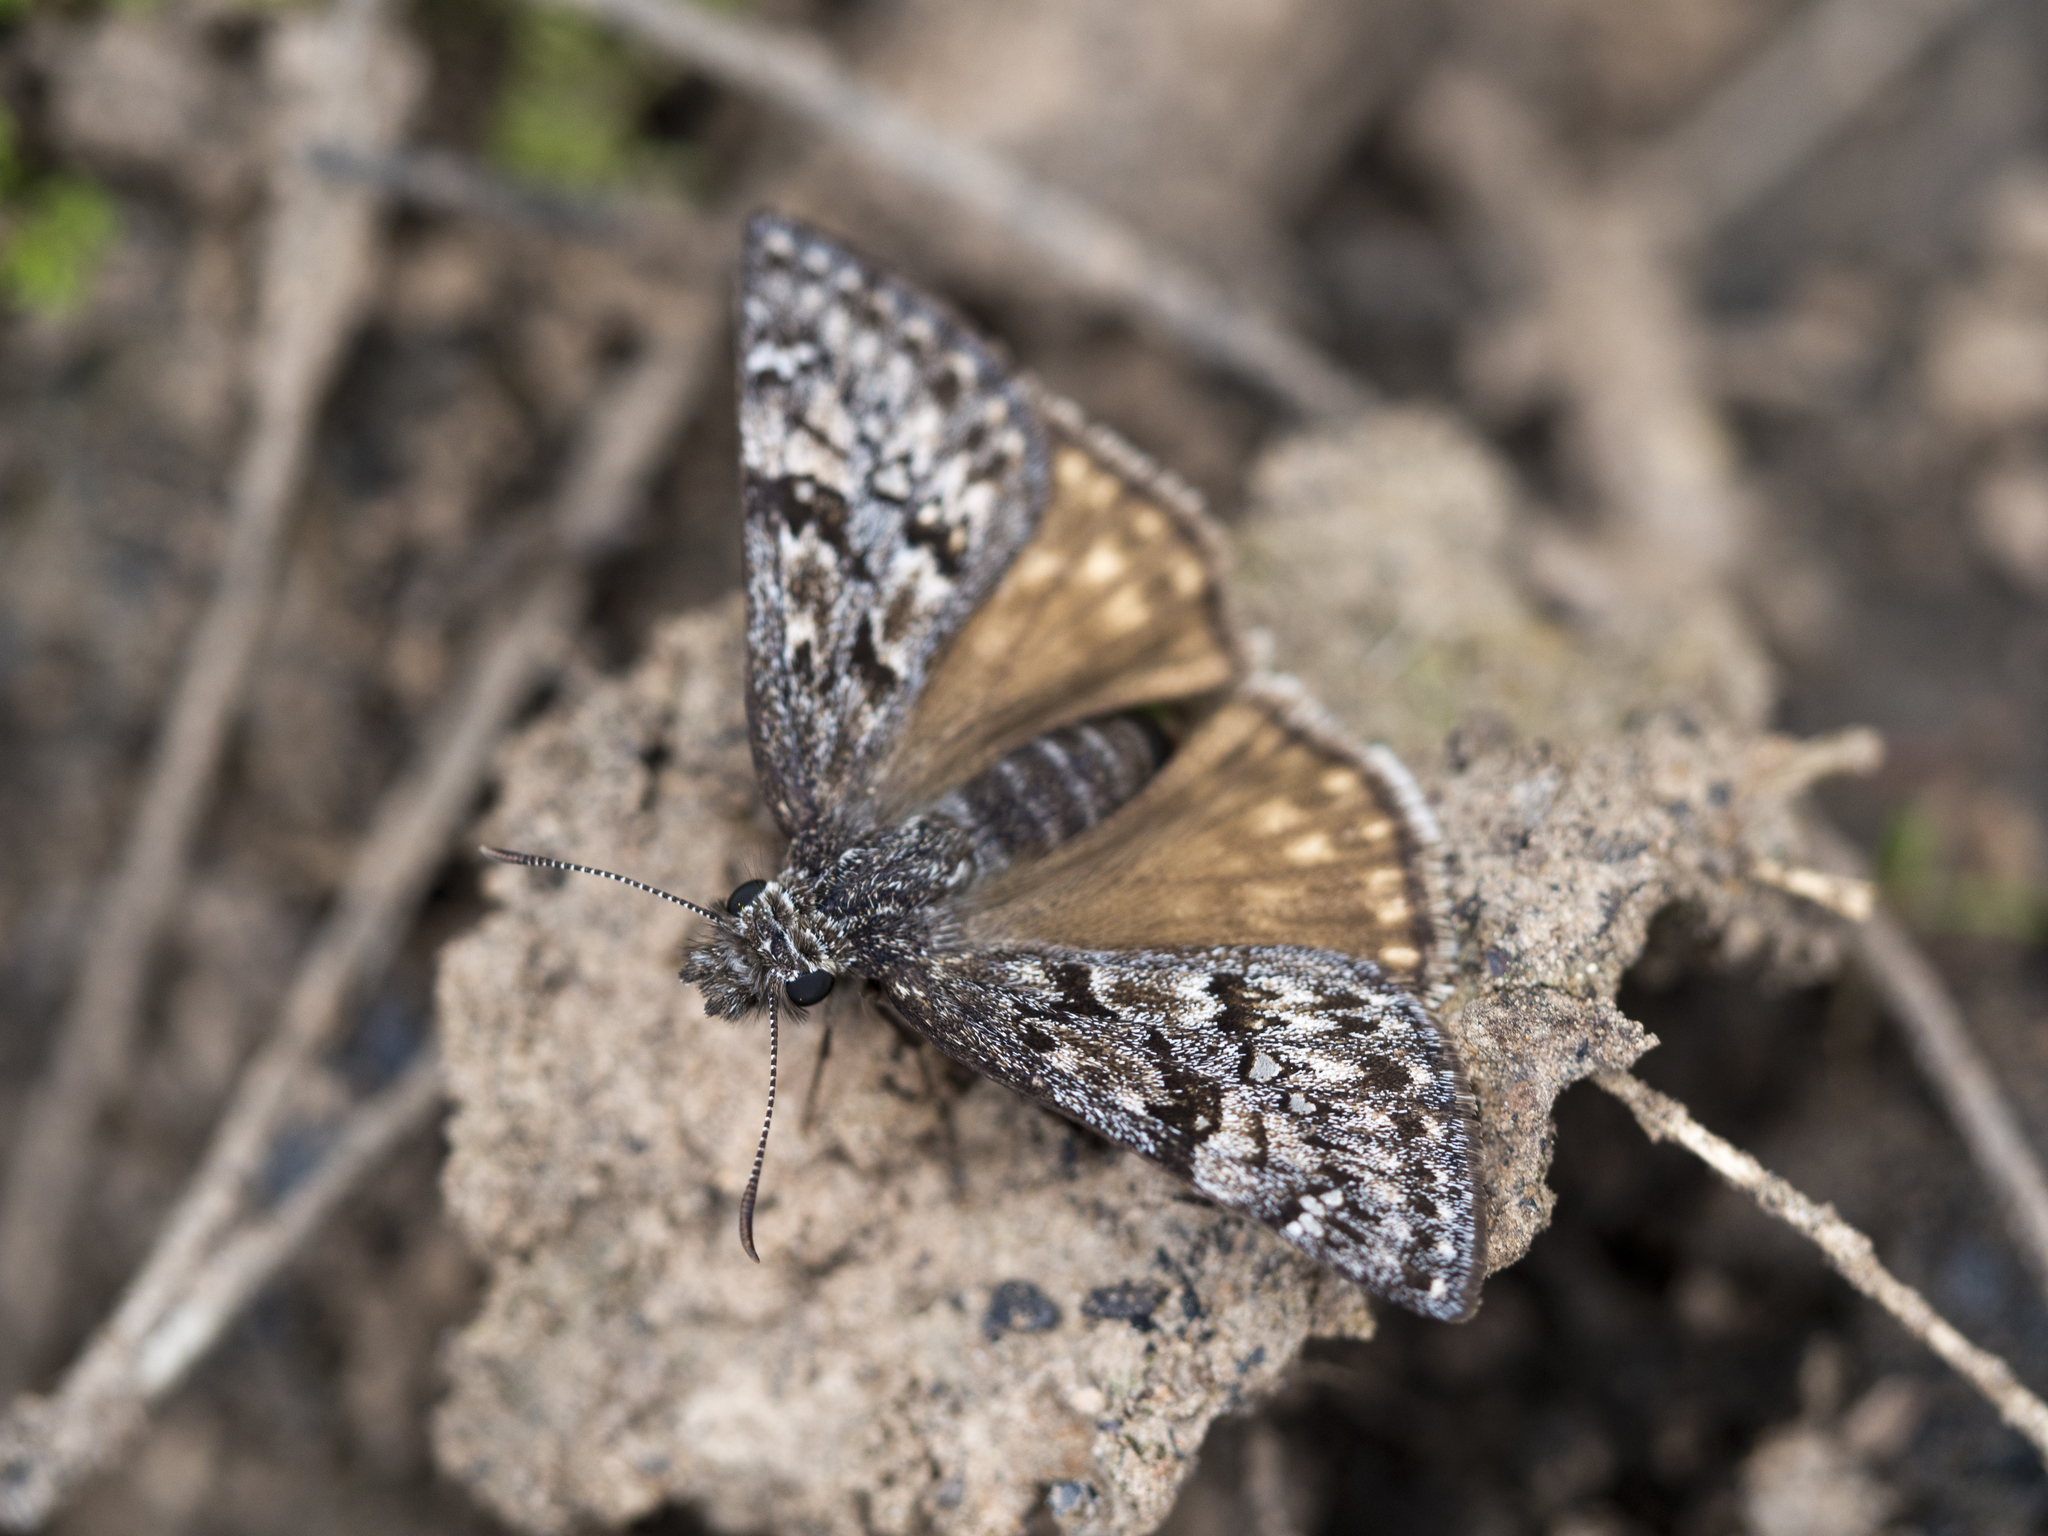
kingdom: Animalia
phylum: Arthropoda
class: Insecta
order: Lepidoptera
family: Hesperiidae
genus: Erynnis
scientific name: Erynnis telemachus
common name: Rocky mountain duskywing
